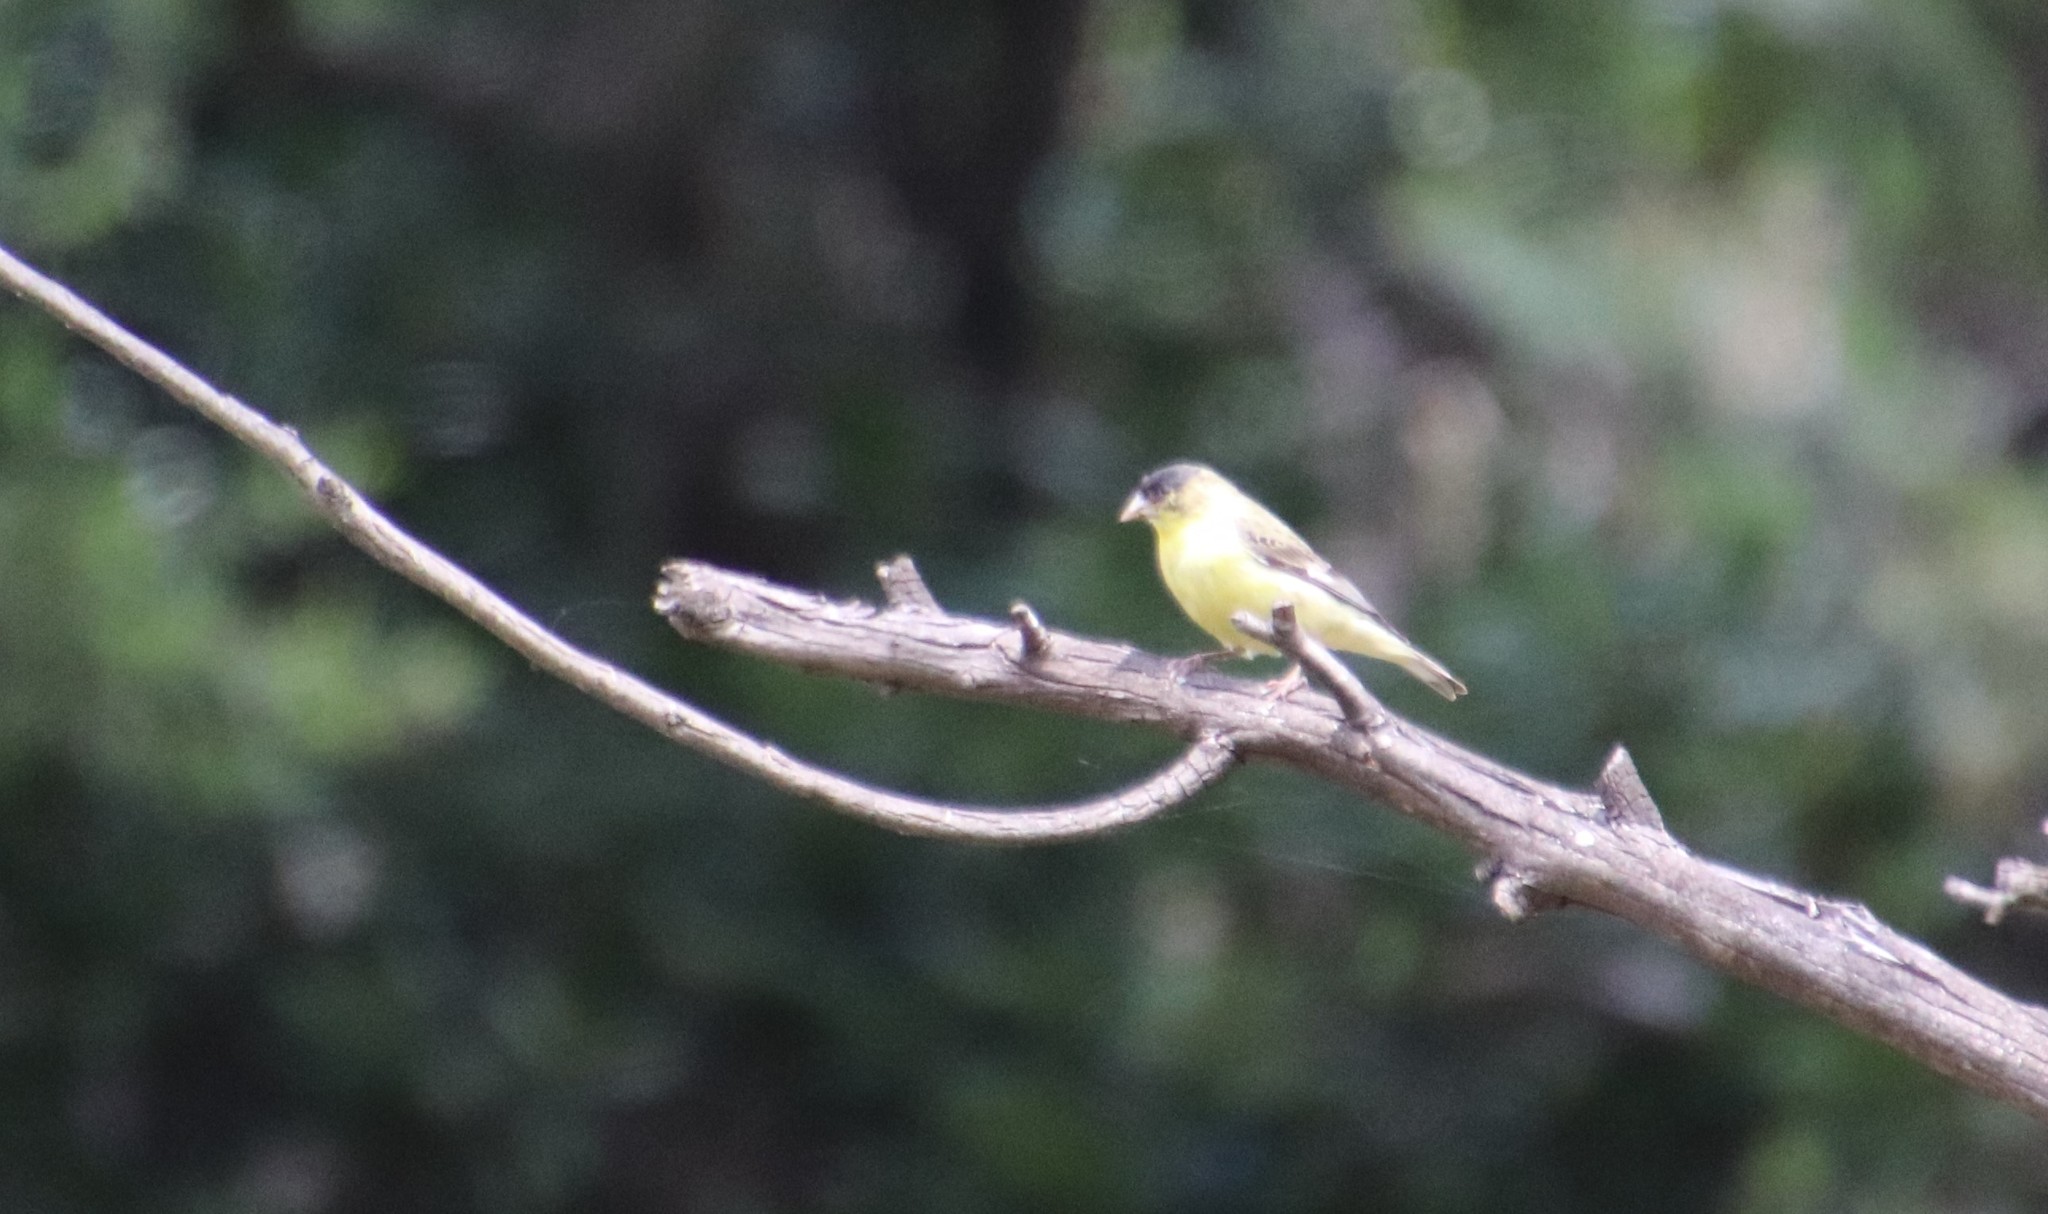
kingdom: Animalia
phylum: Chordata
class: Aves
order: Passeriformes
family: Fringillidae
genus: Spinus
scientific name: Spinus psaltria
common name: Lesser goldfinch
